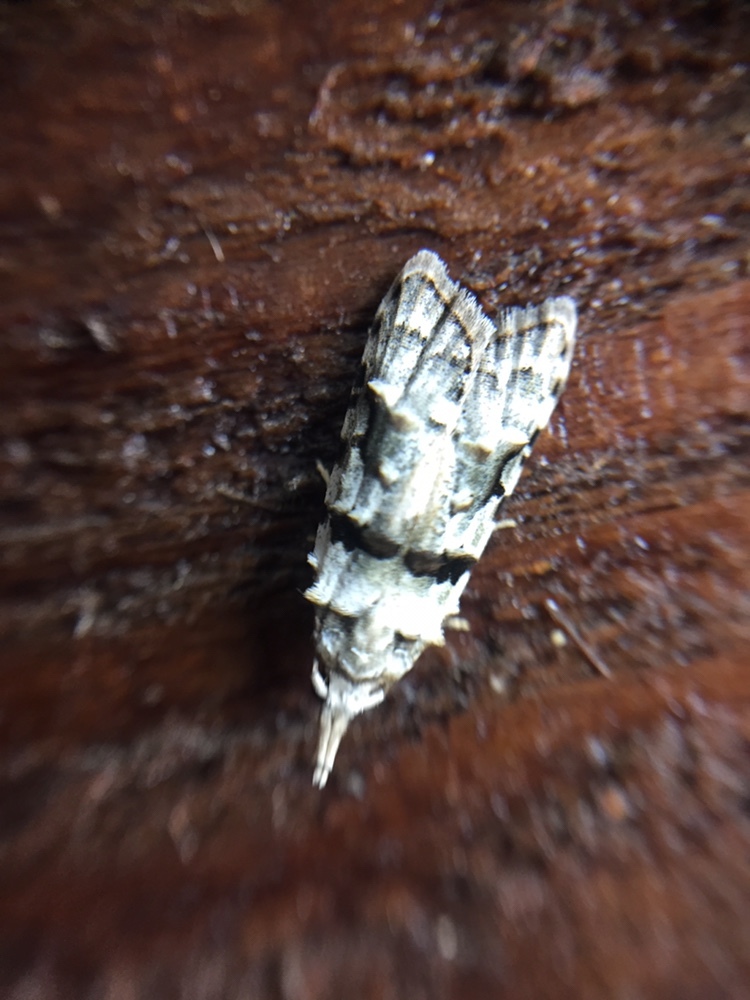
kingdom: Animalia
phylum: Arthropoda
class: Insecta
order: Lepidoptera
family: Carposinidae
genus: Coscinoptycha
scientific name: Coscinoptycha improbana
